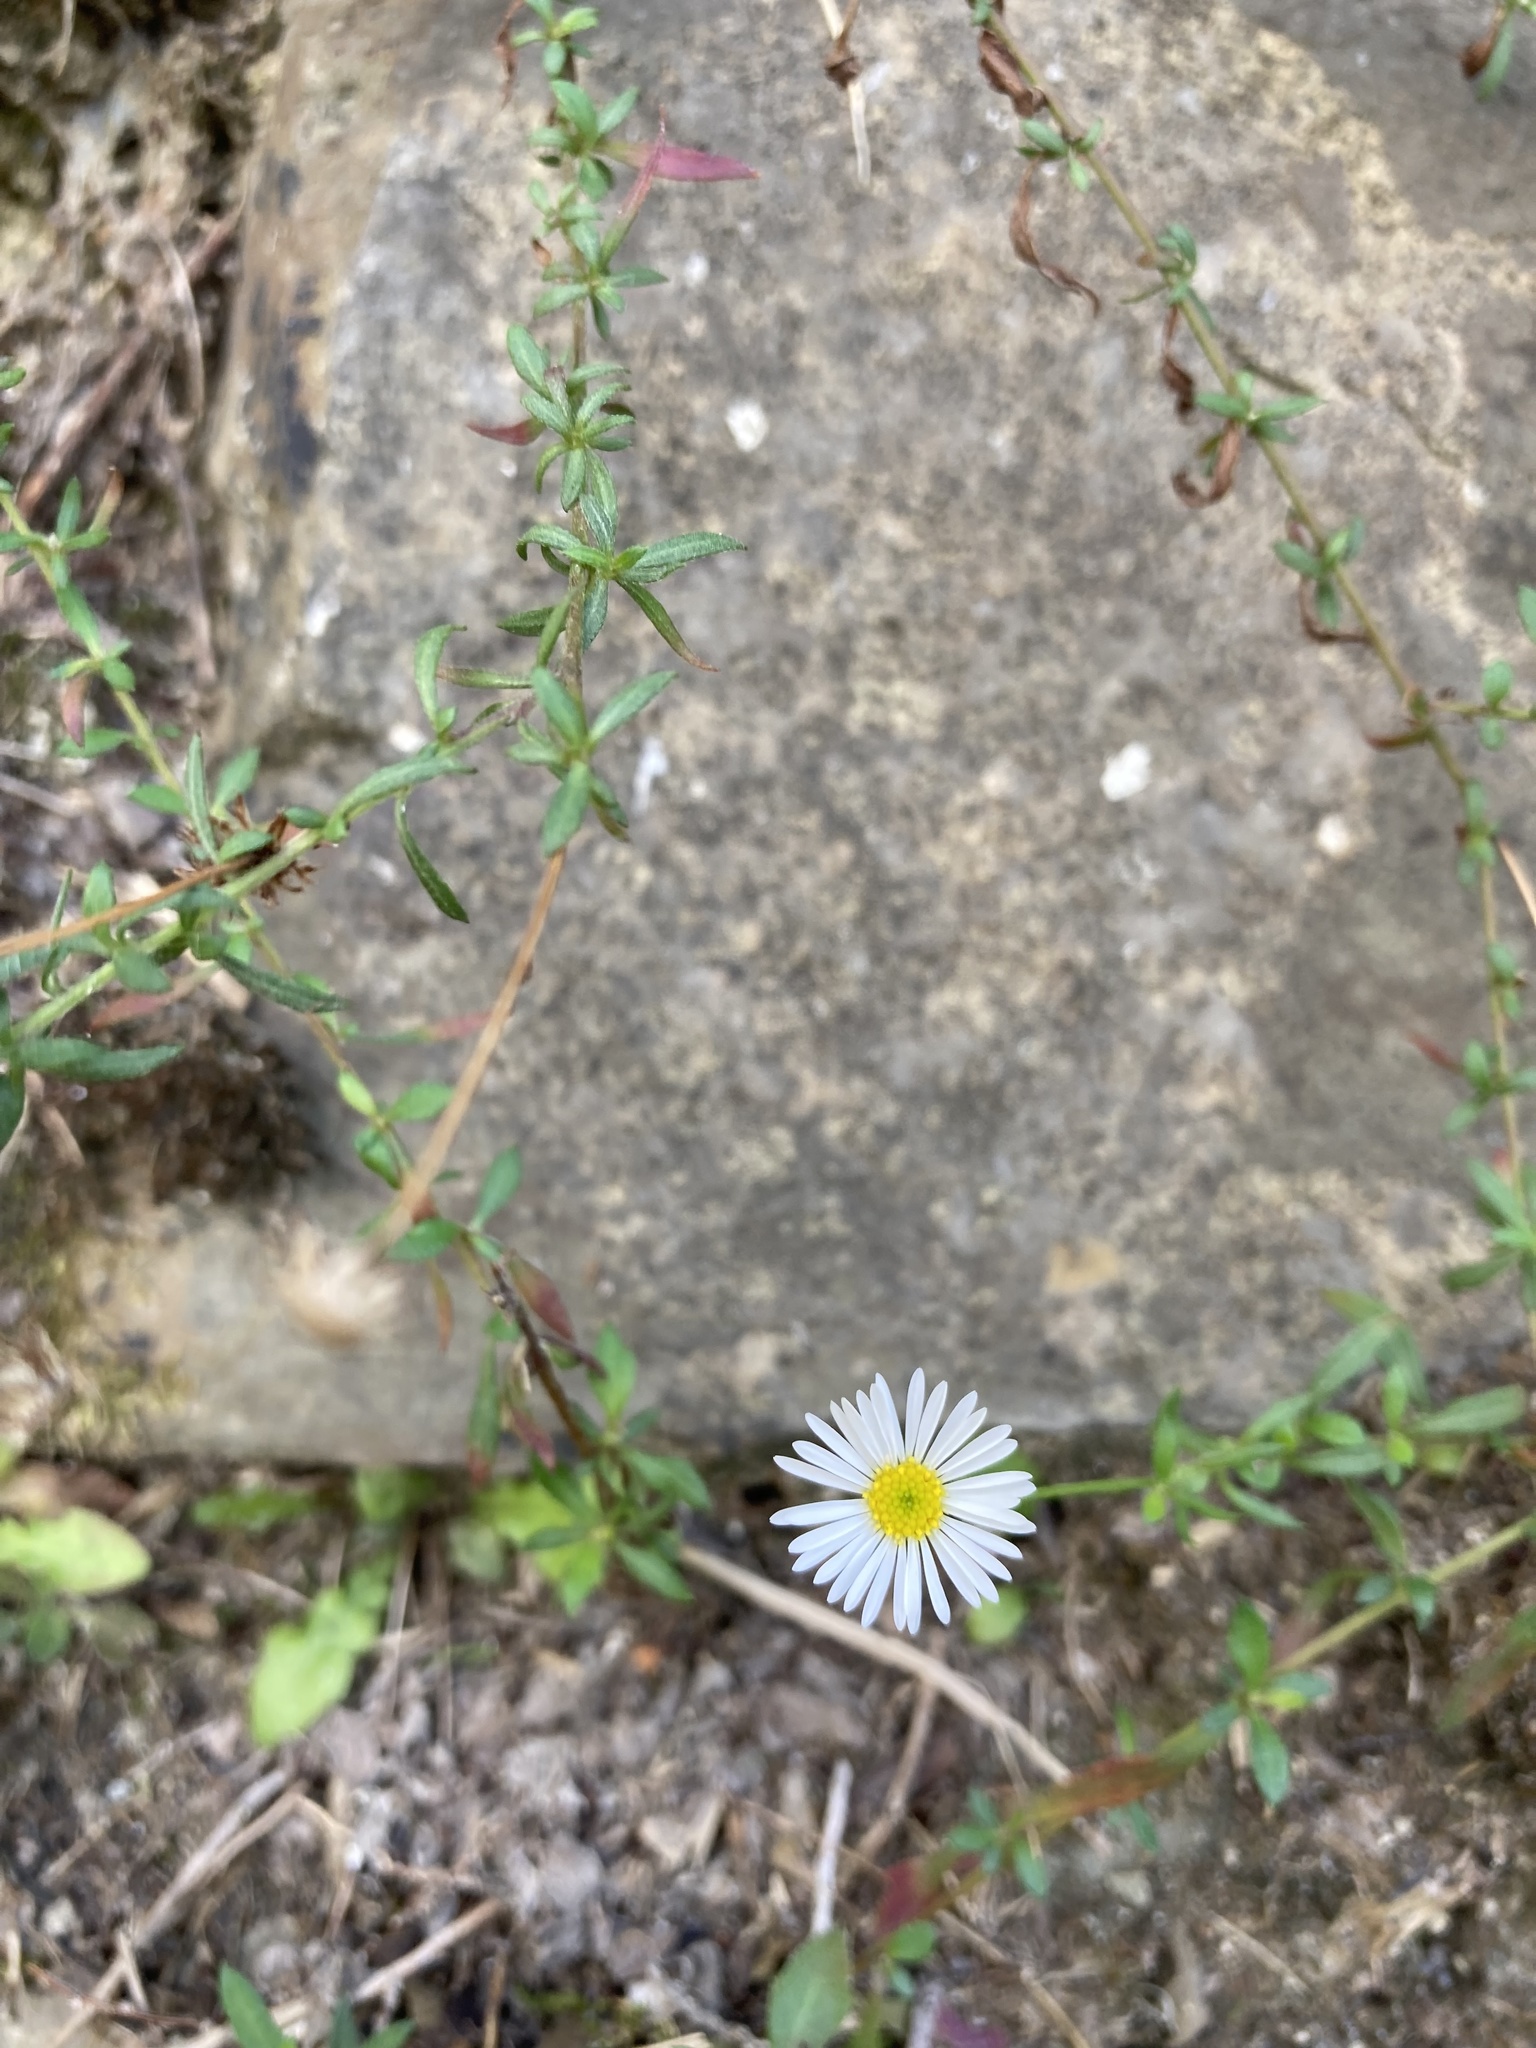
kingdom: Plantae
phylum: Tracheophyta
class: Magnoliopsida
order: Asterales
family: Asteraceae
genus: Erigeron
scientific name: Erigeron karvinskianus
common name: Mexican fleabane
